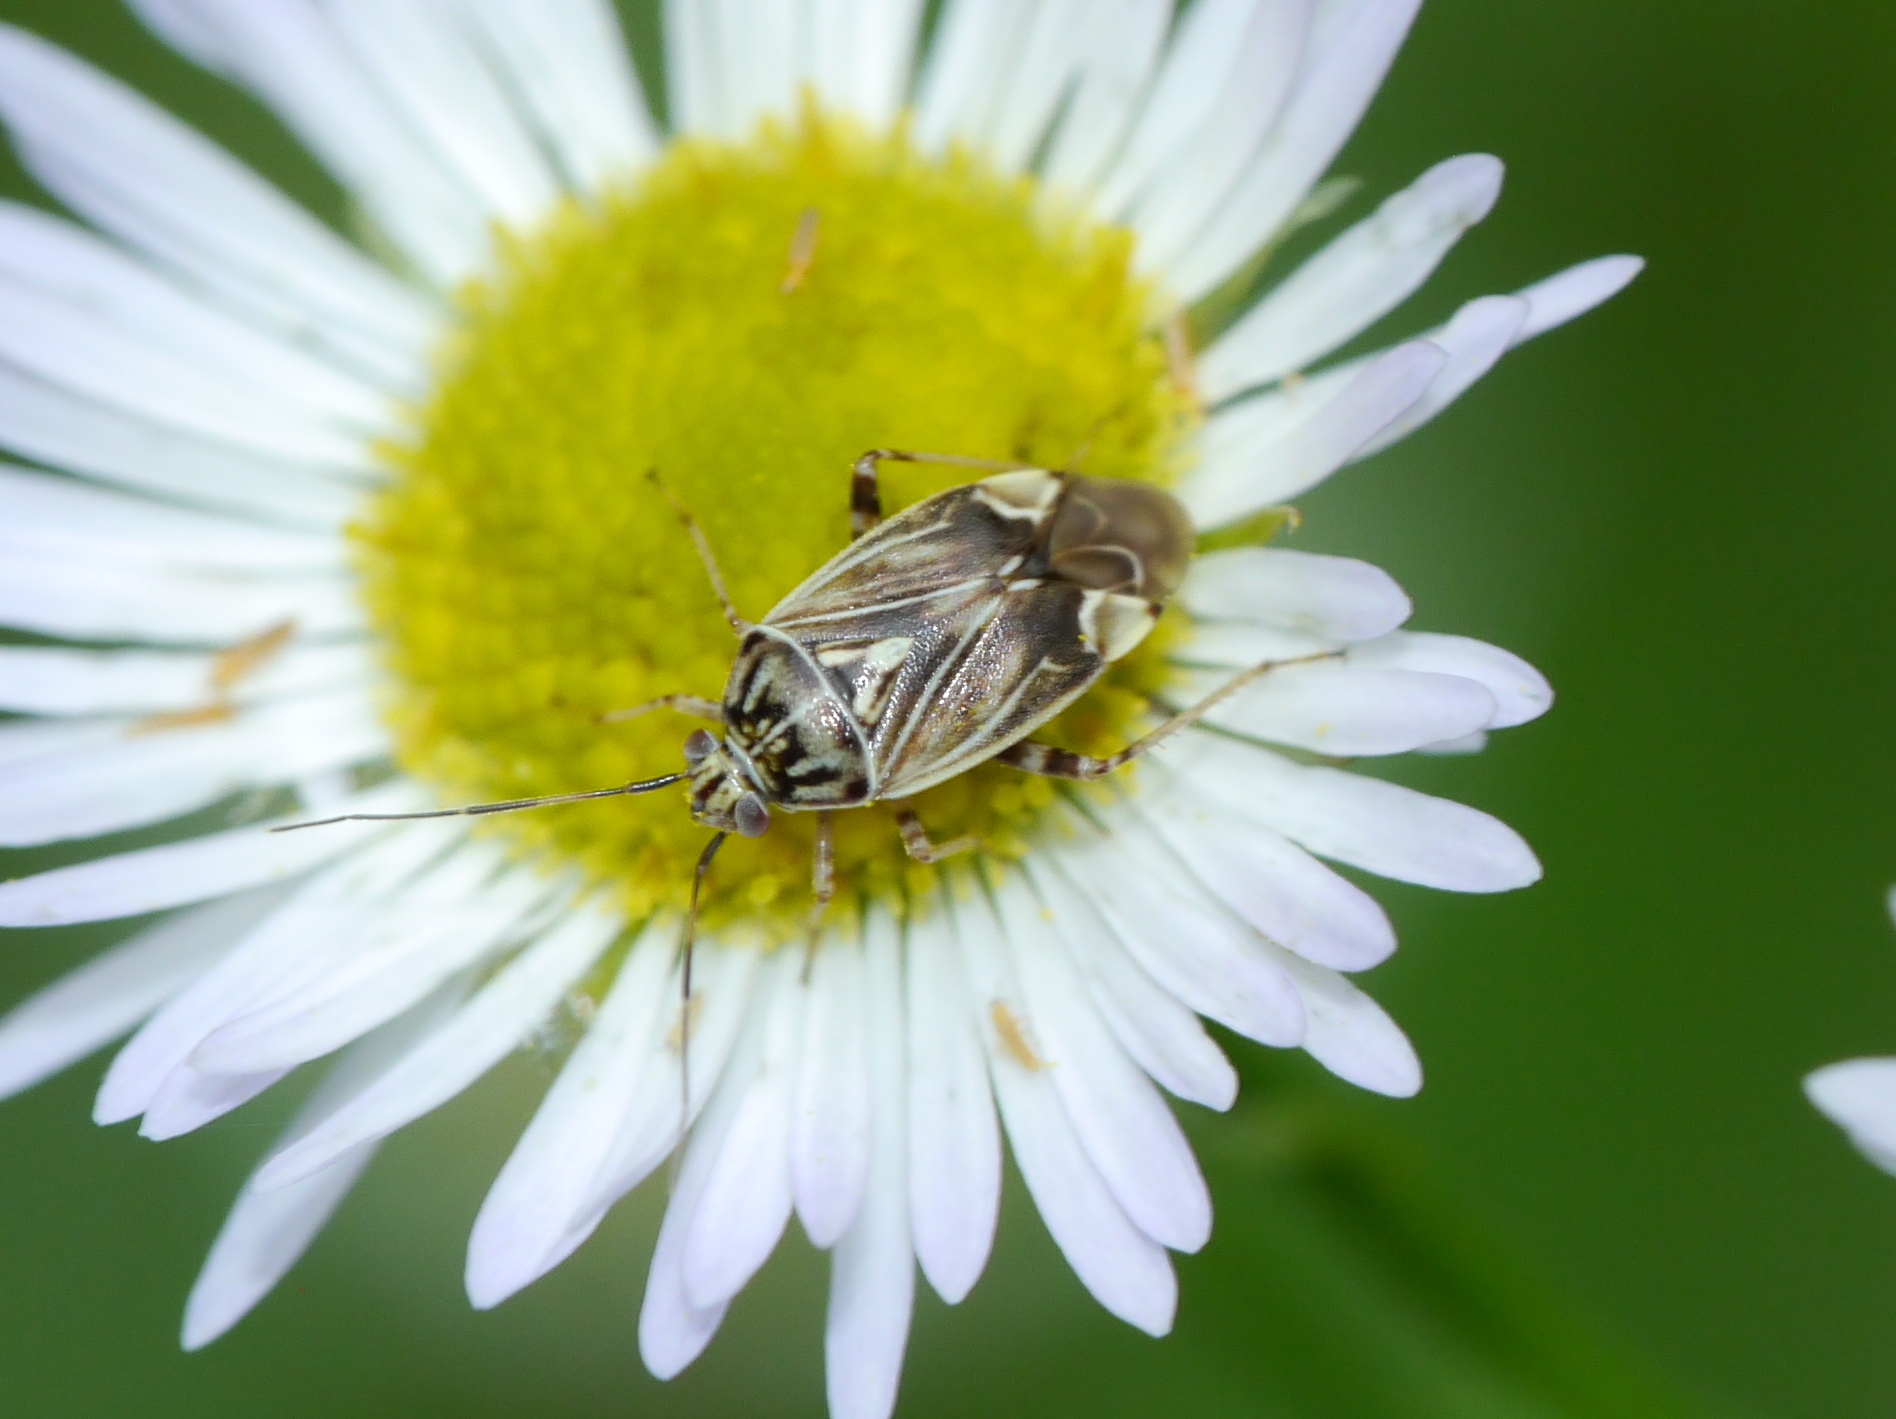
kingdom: Animalia
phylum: Arthropoda
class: Insecta
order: Hemiptera
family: Miridae
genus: Lygus
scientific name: Lygus lineolaris
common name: North american tarnished plant bug
